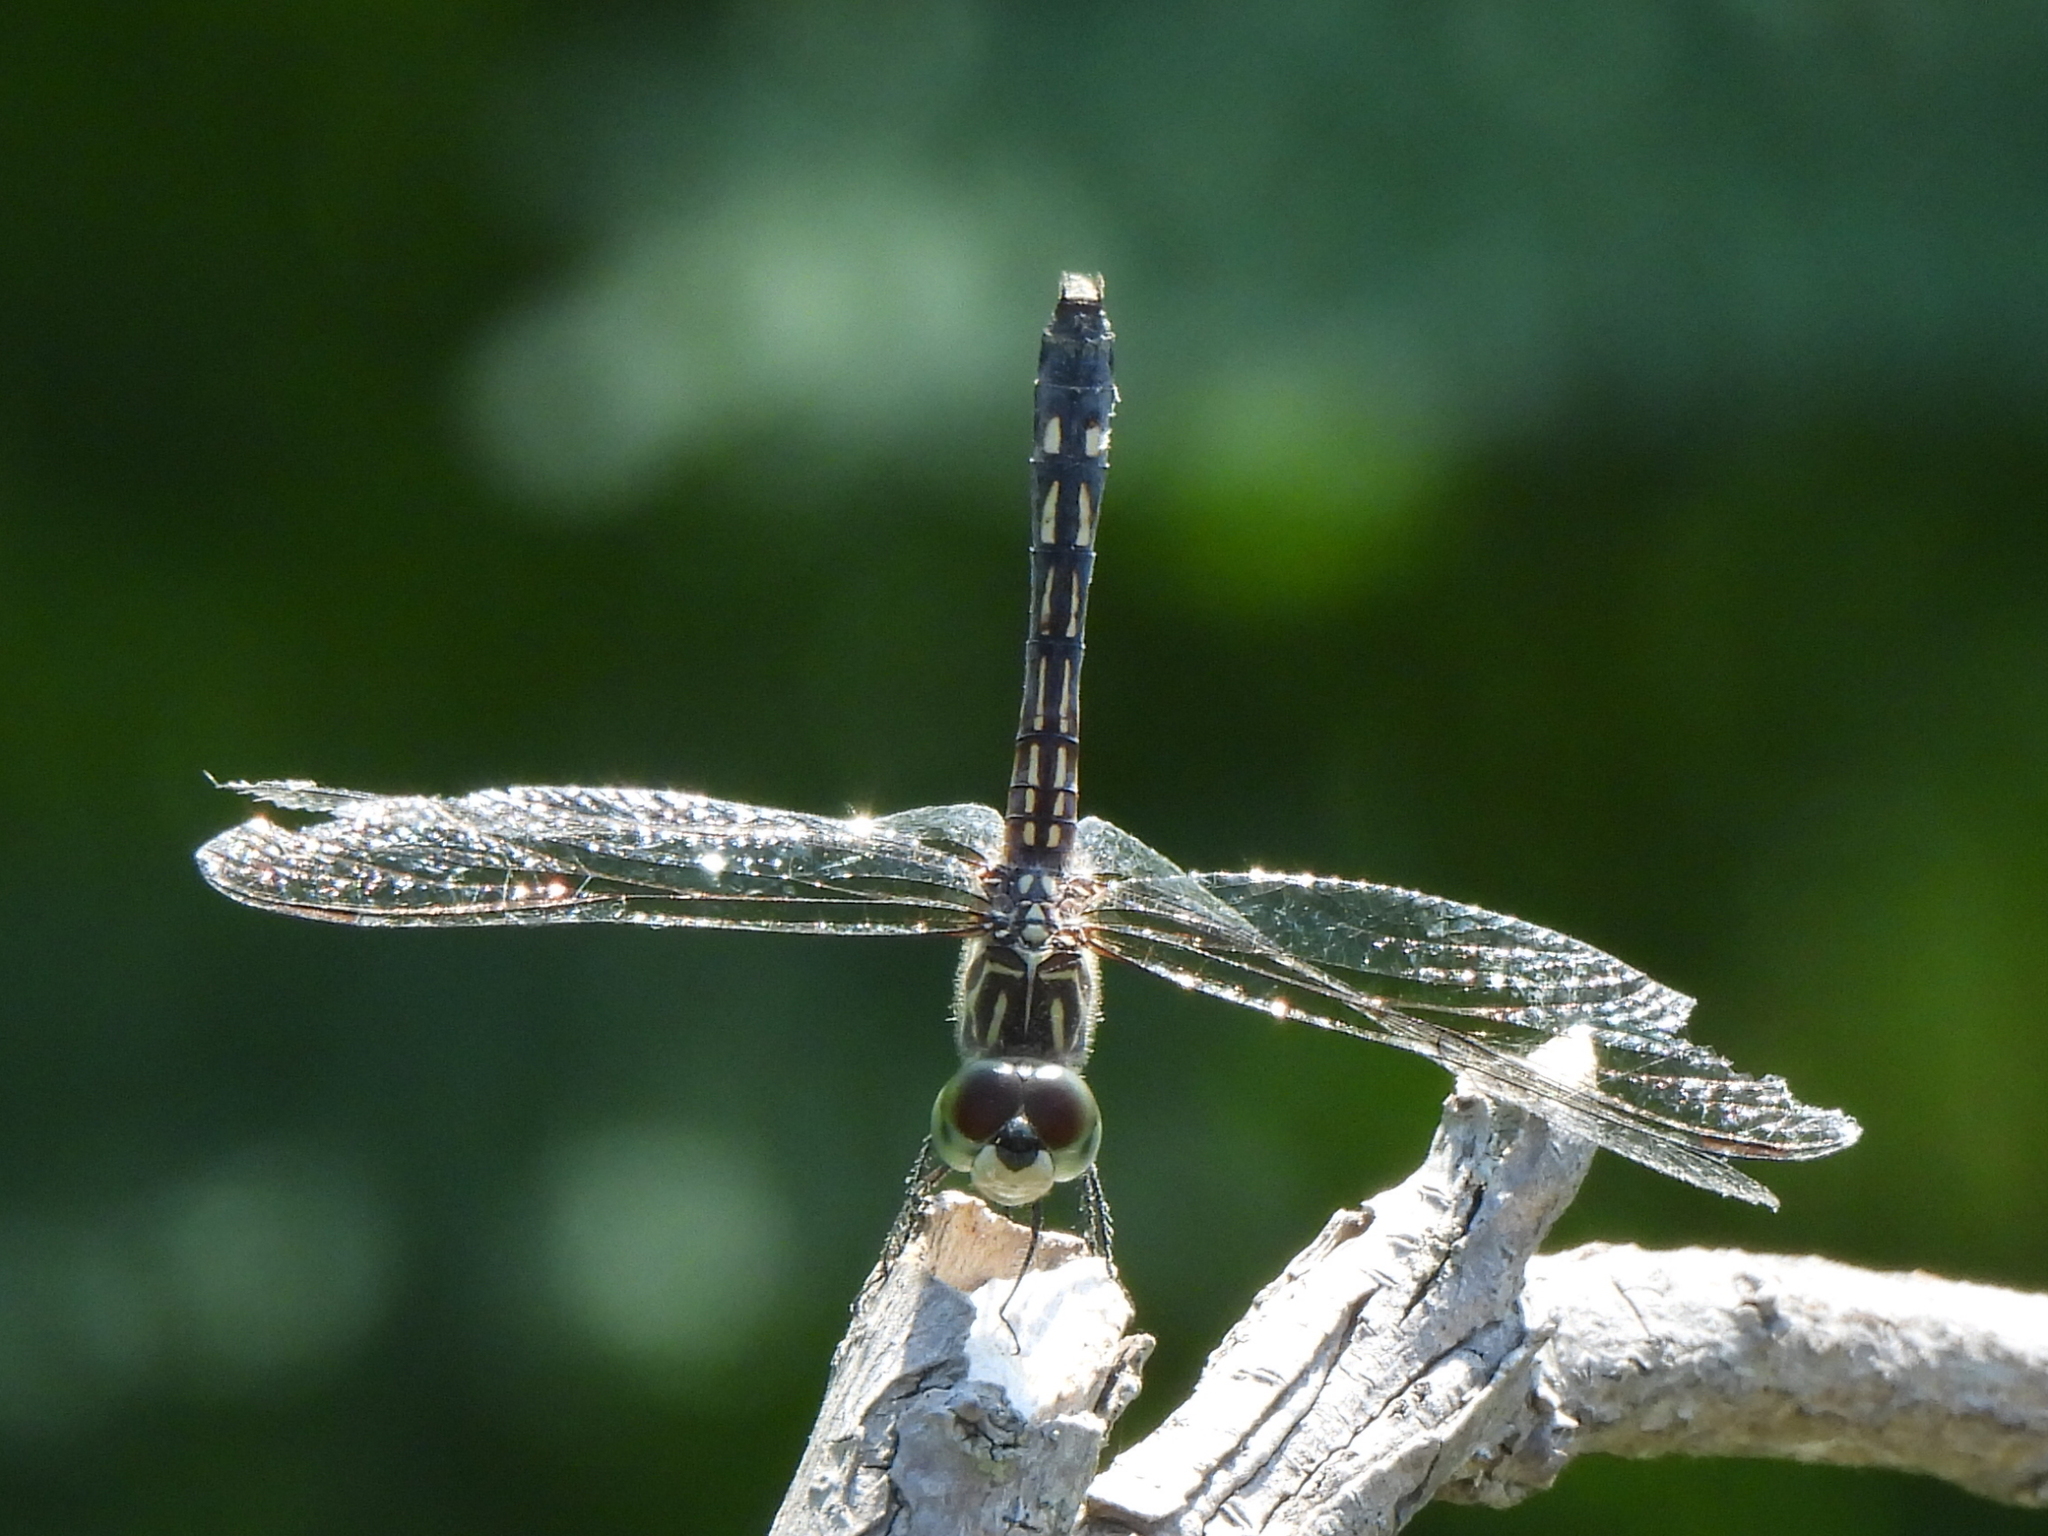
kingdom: Animalia
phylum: Arthropoda
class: Insecta
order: Odonata
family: Libellulidae
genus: Pachydiplax
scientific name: Pachydiplax longipennis
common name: Blue dasher
